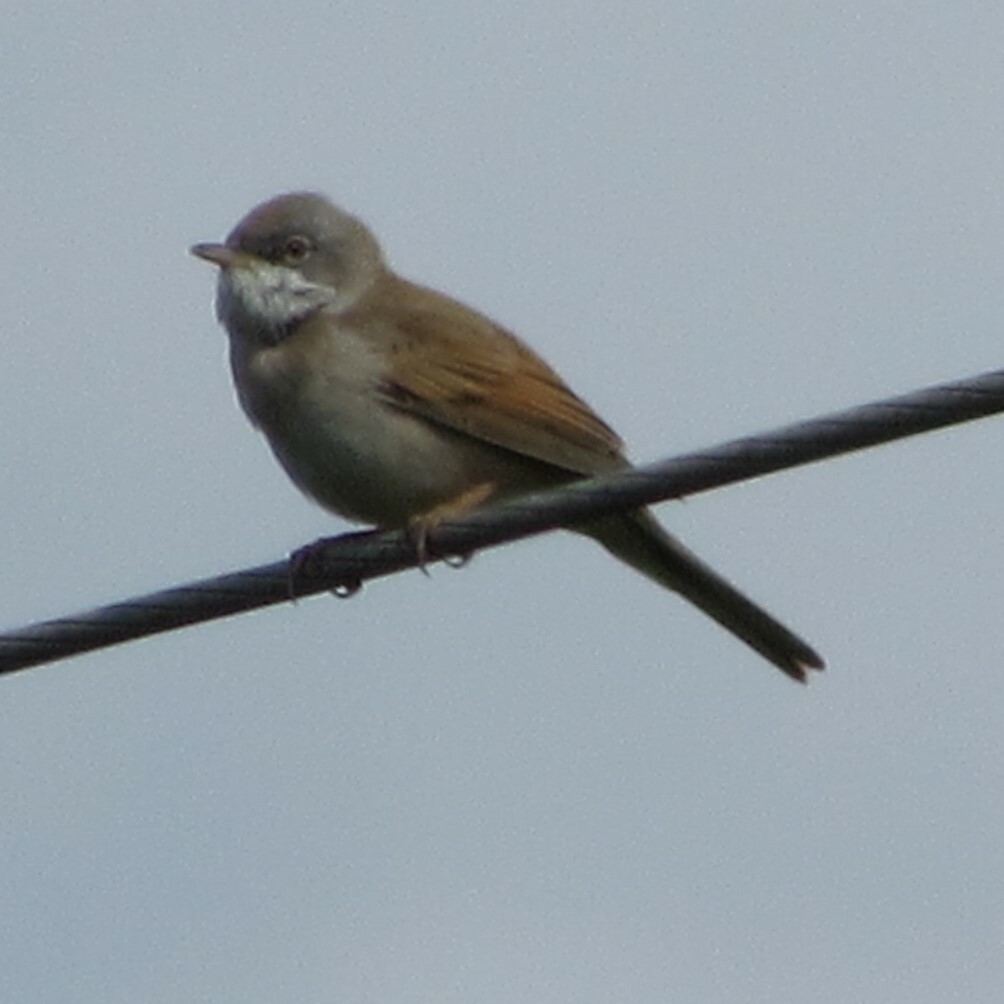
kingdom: Animalia
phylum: Chordata
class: Aves
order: Passeriformes
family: Sylviidae
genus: Sylvia
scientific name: Sylvia communis
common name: Common whitethroat
